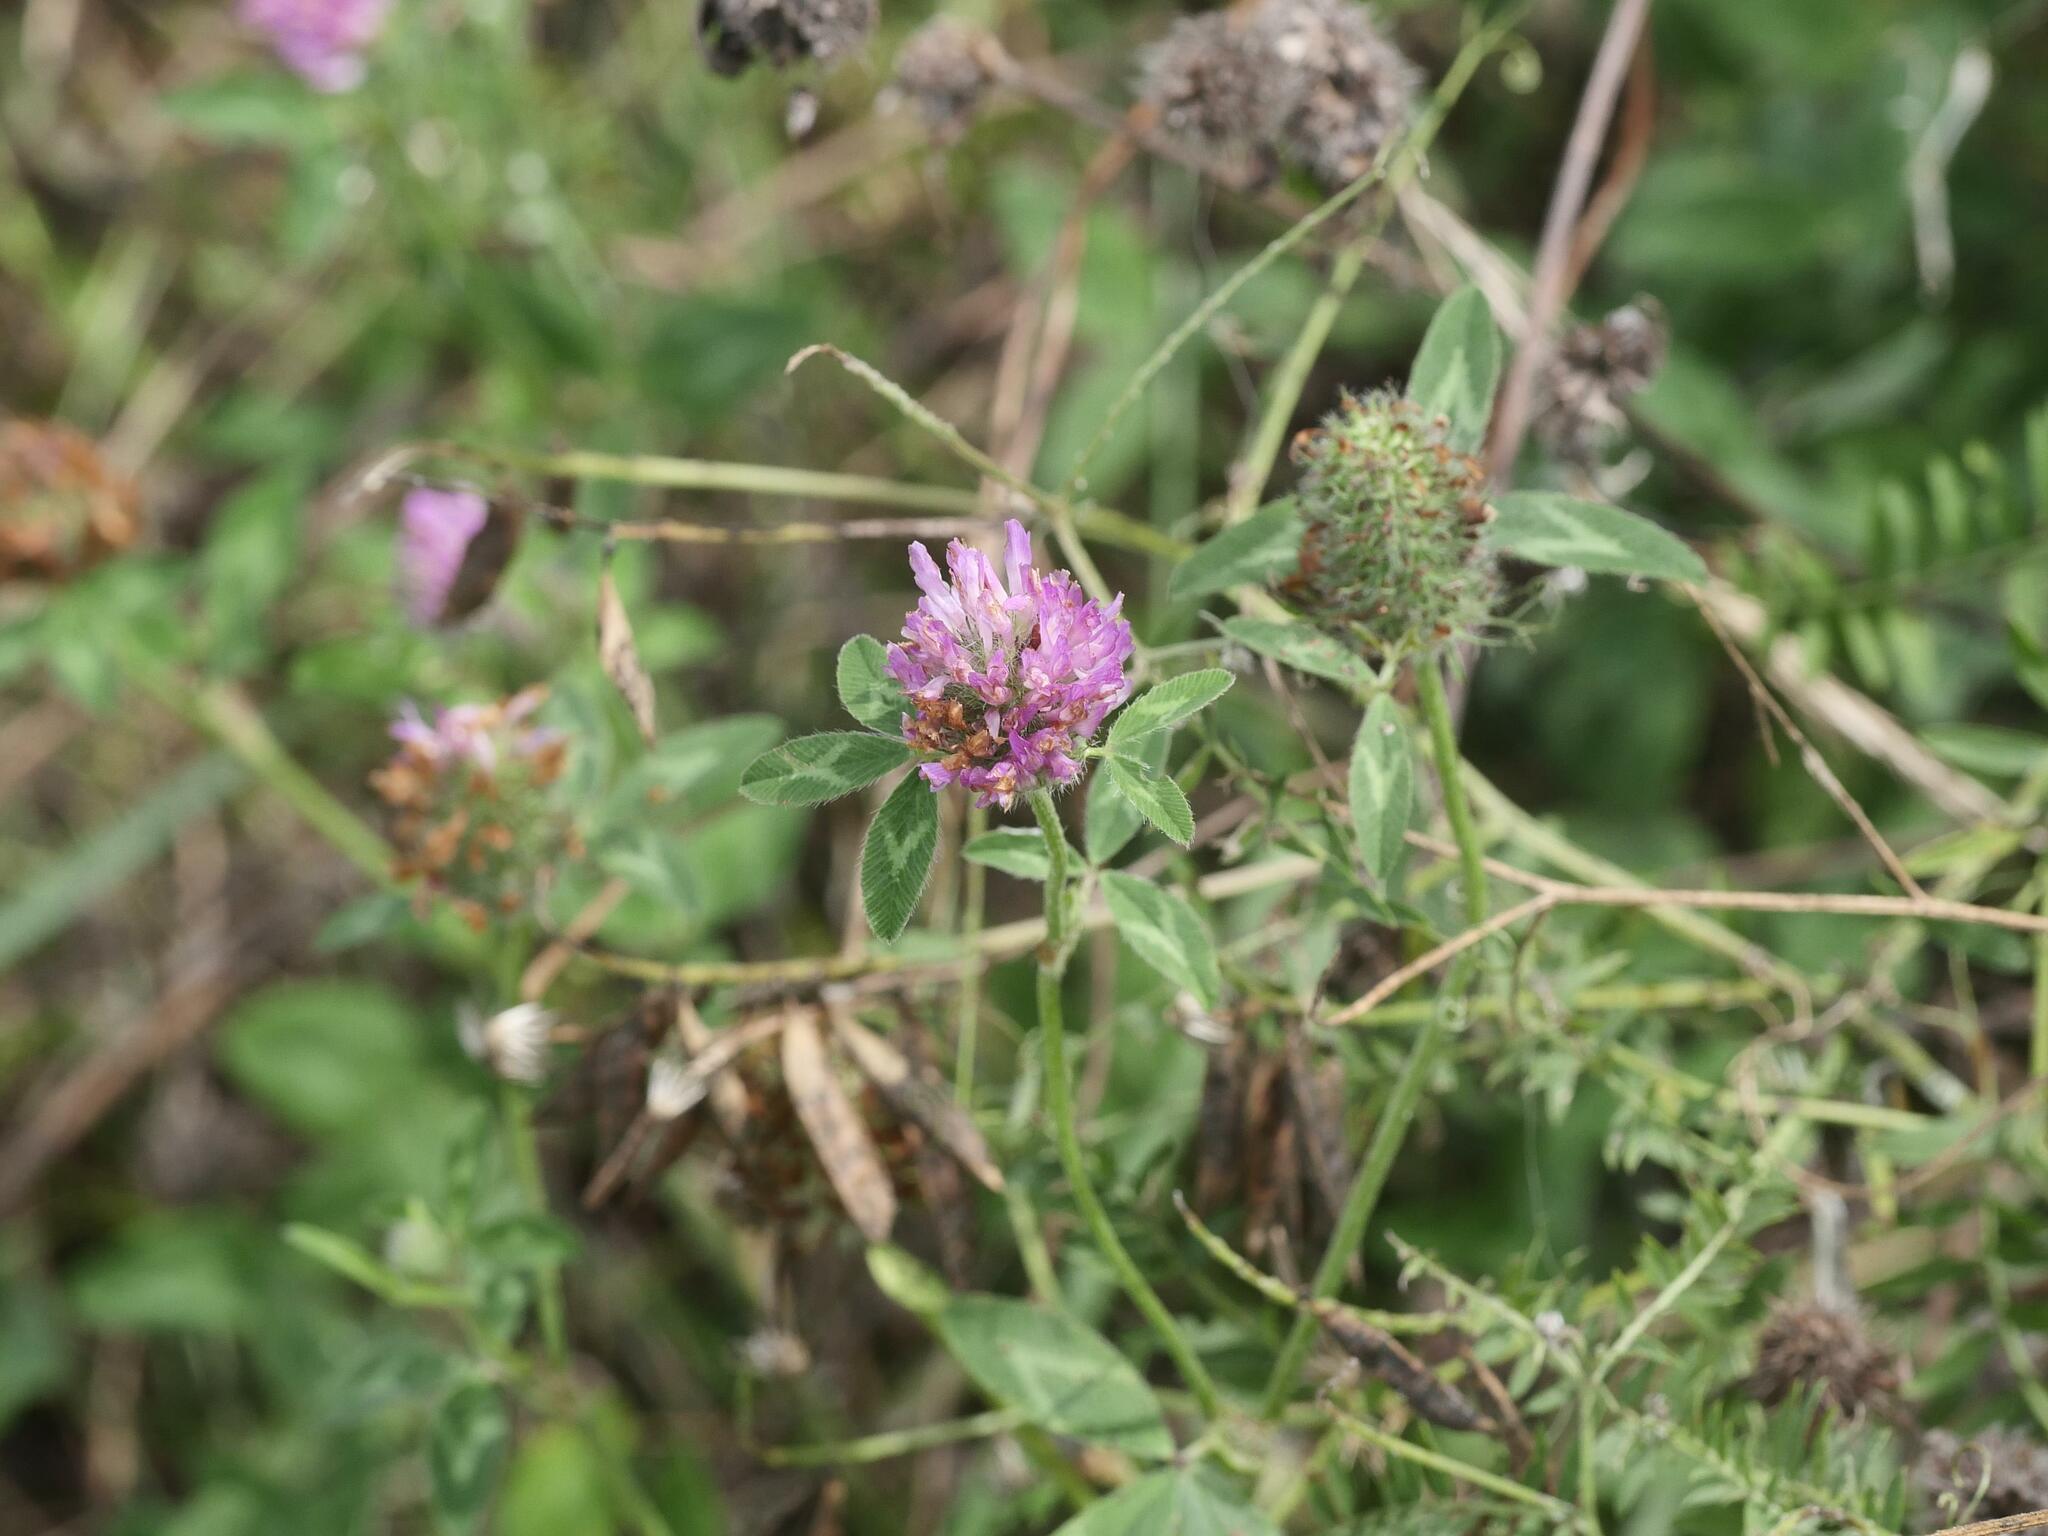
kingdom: Plantae
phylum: Tracheophyta
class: Magnoliopsida
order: Fabales
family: Fabaceae
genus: Trifolium
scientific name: Trifolium pratense
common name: Red clover
